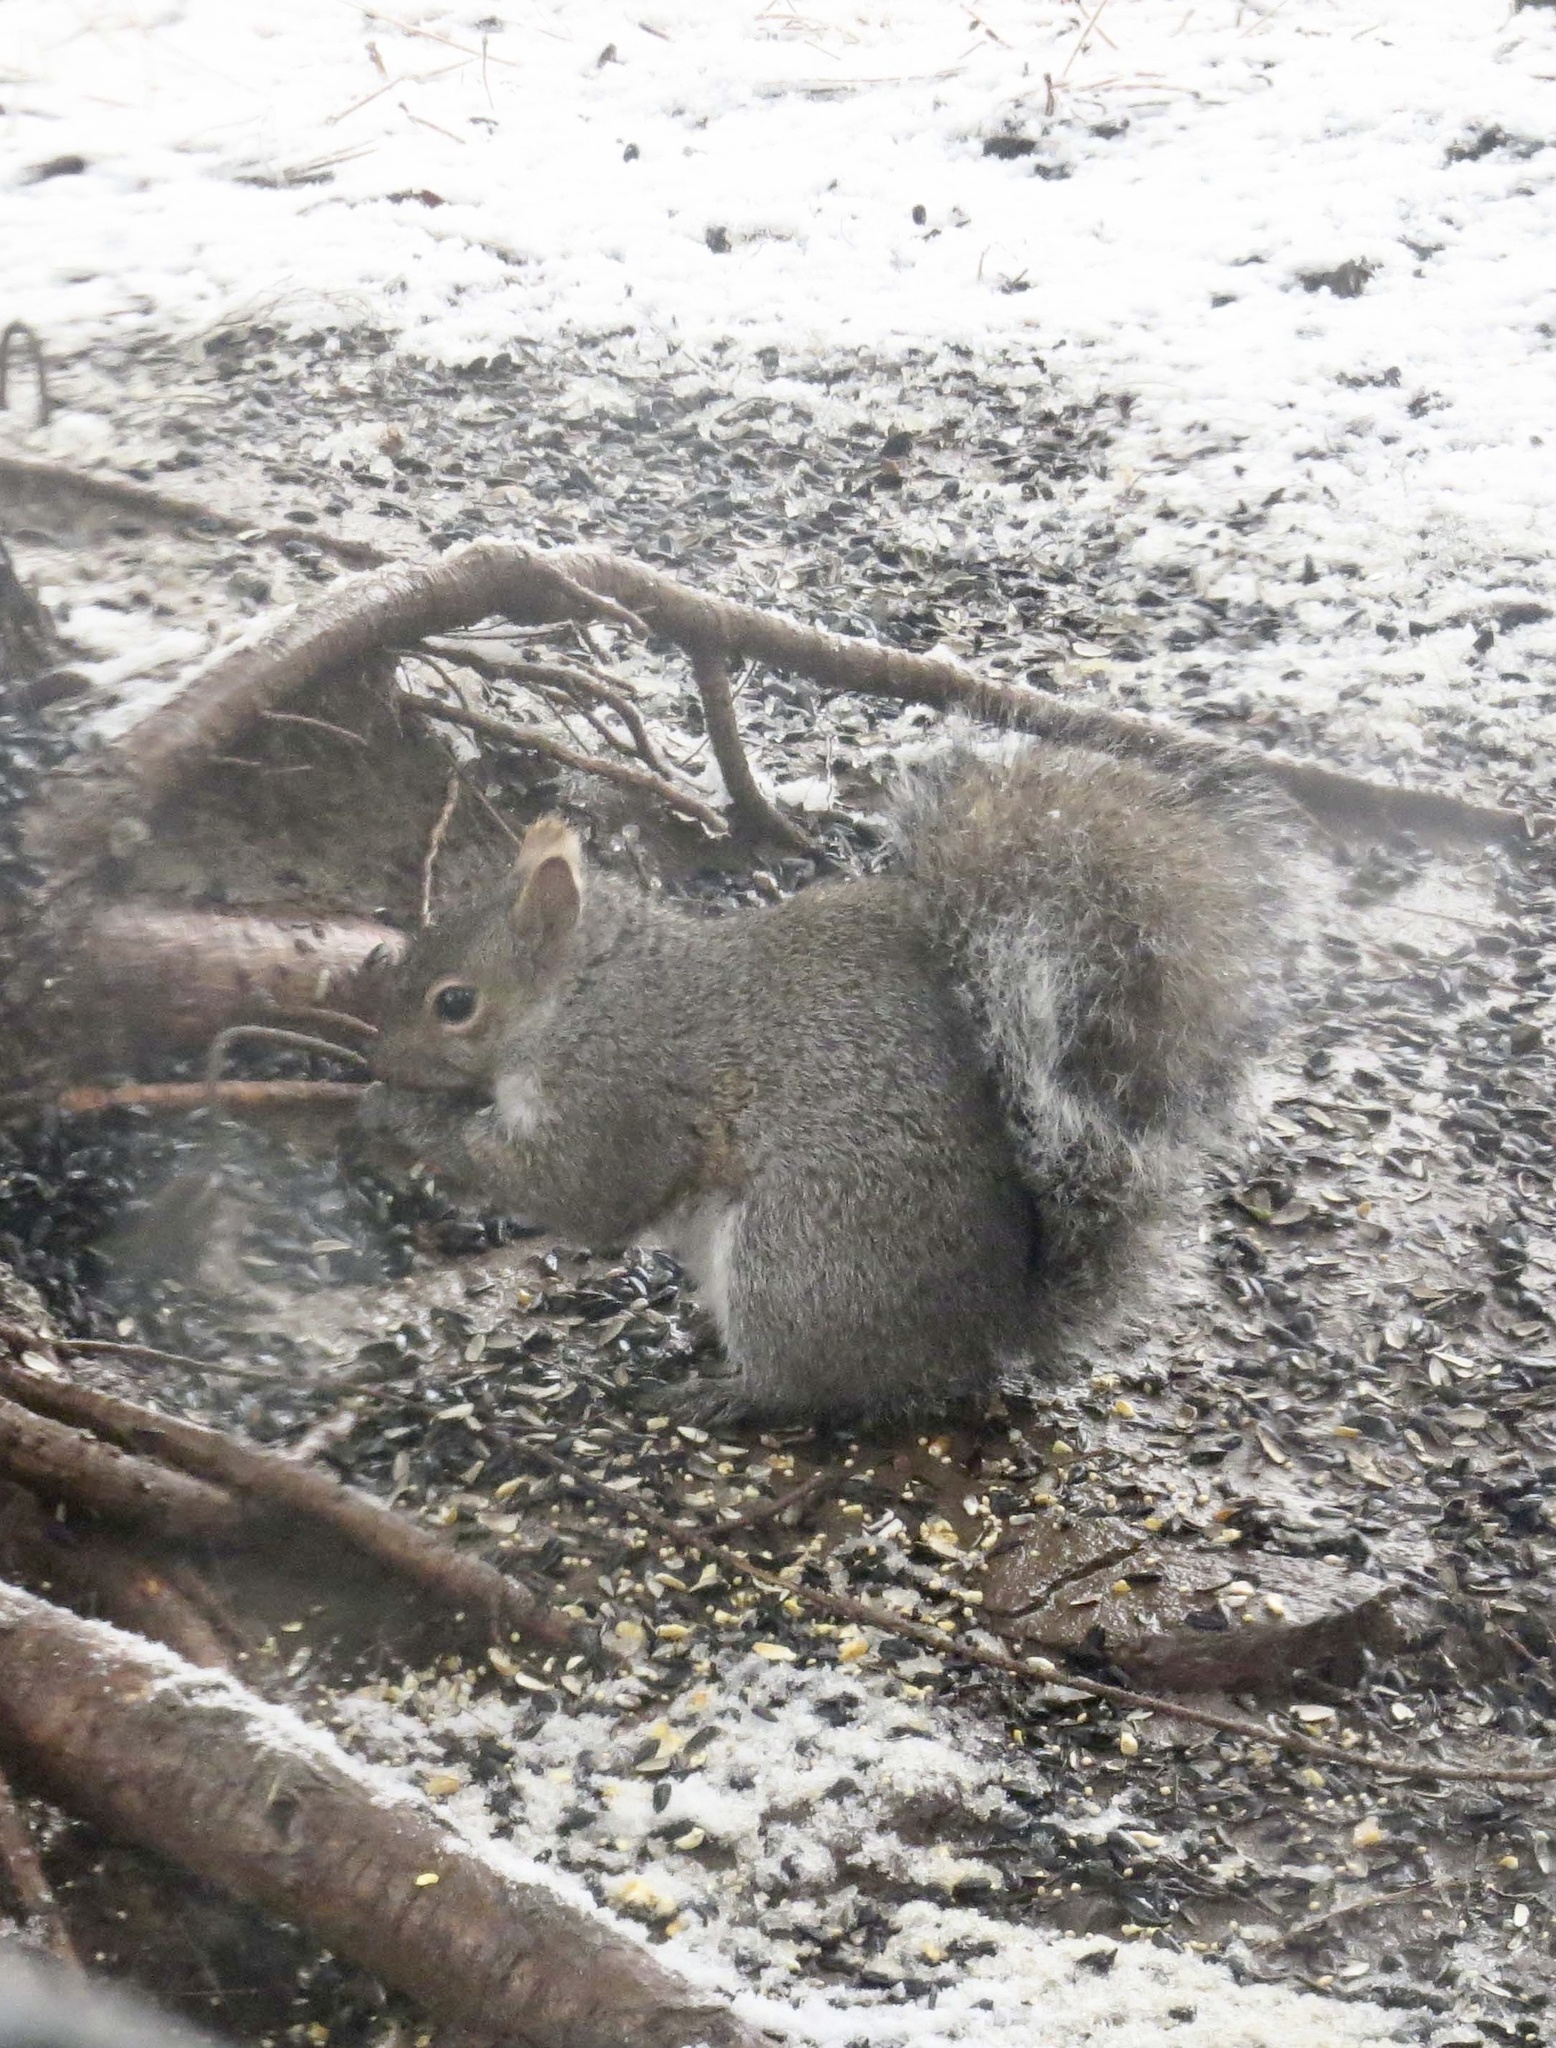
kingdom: Animalia
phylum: Chordata
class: Mammalia
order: Rodentia
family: Sciuridae
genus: Sciurus
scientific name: Sciurus carolinensis
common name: Eastern gray squirrel
